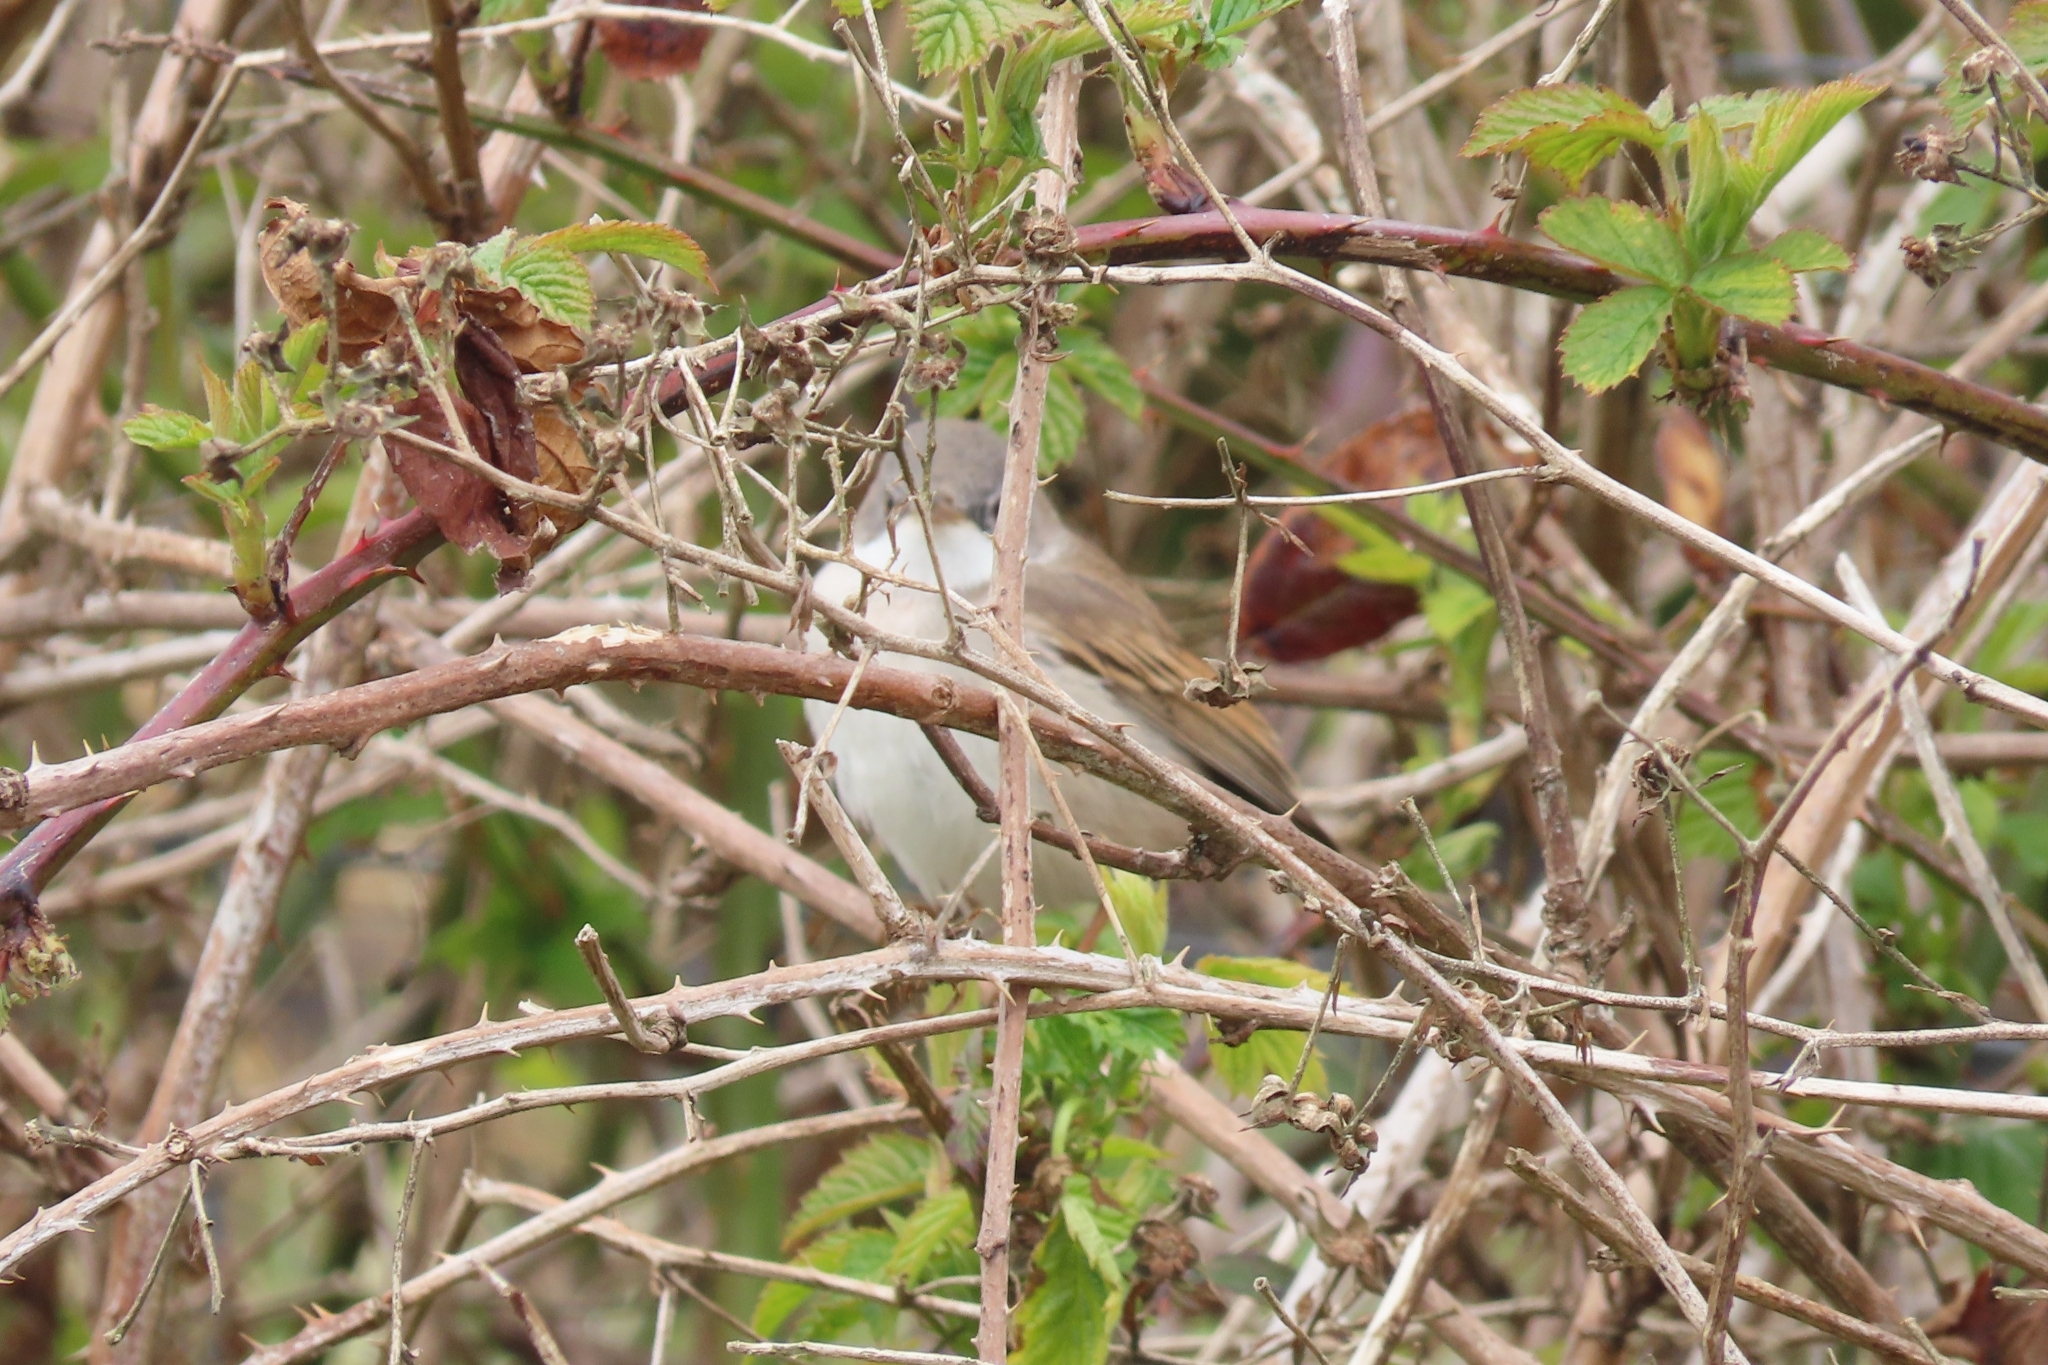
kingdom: Animalia
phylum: Chordata
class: Aves
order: Passeriformes
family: Sylviidae
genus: Sylvia
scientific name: Sylvia communis
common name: Common whitethroat
